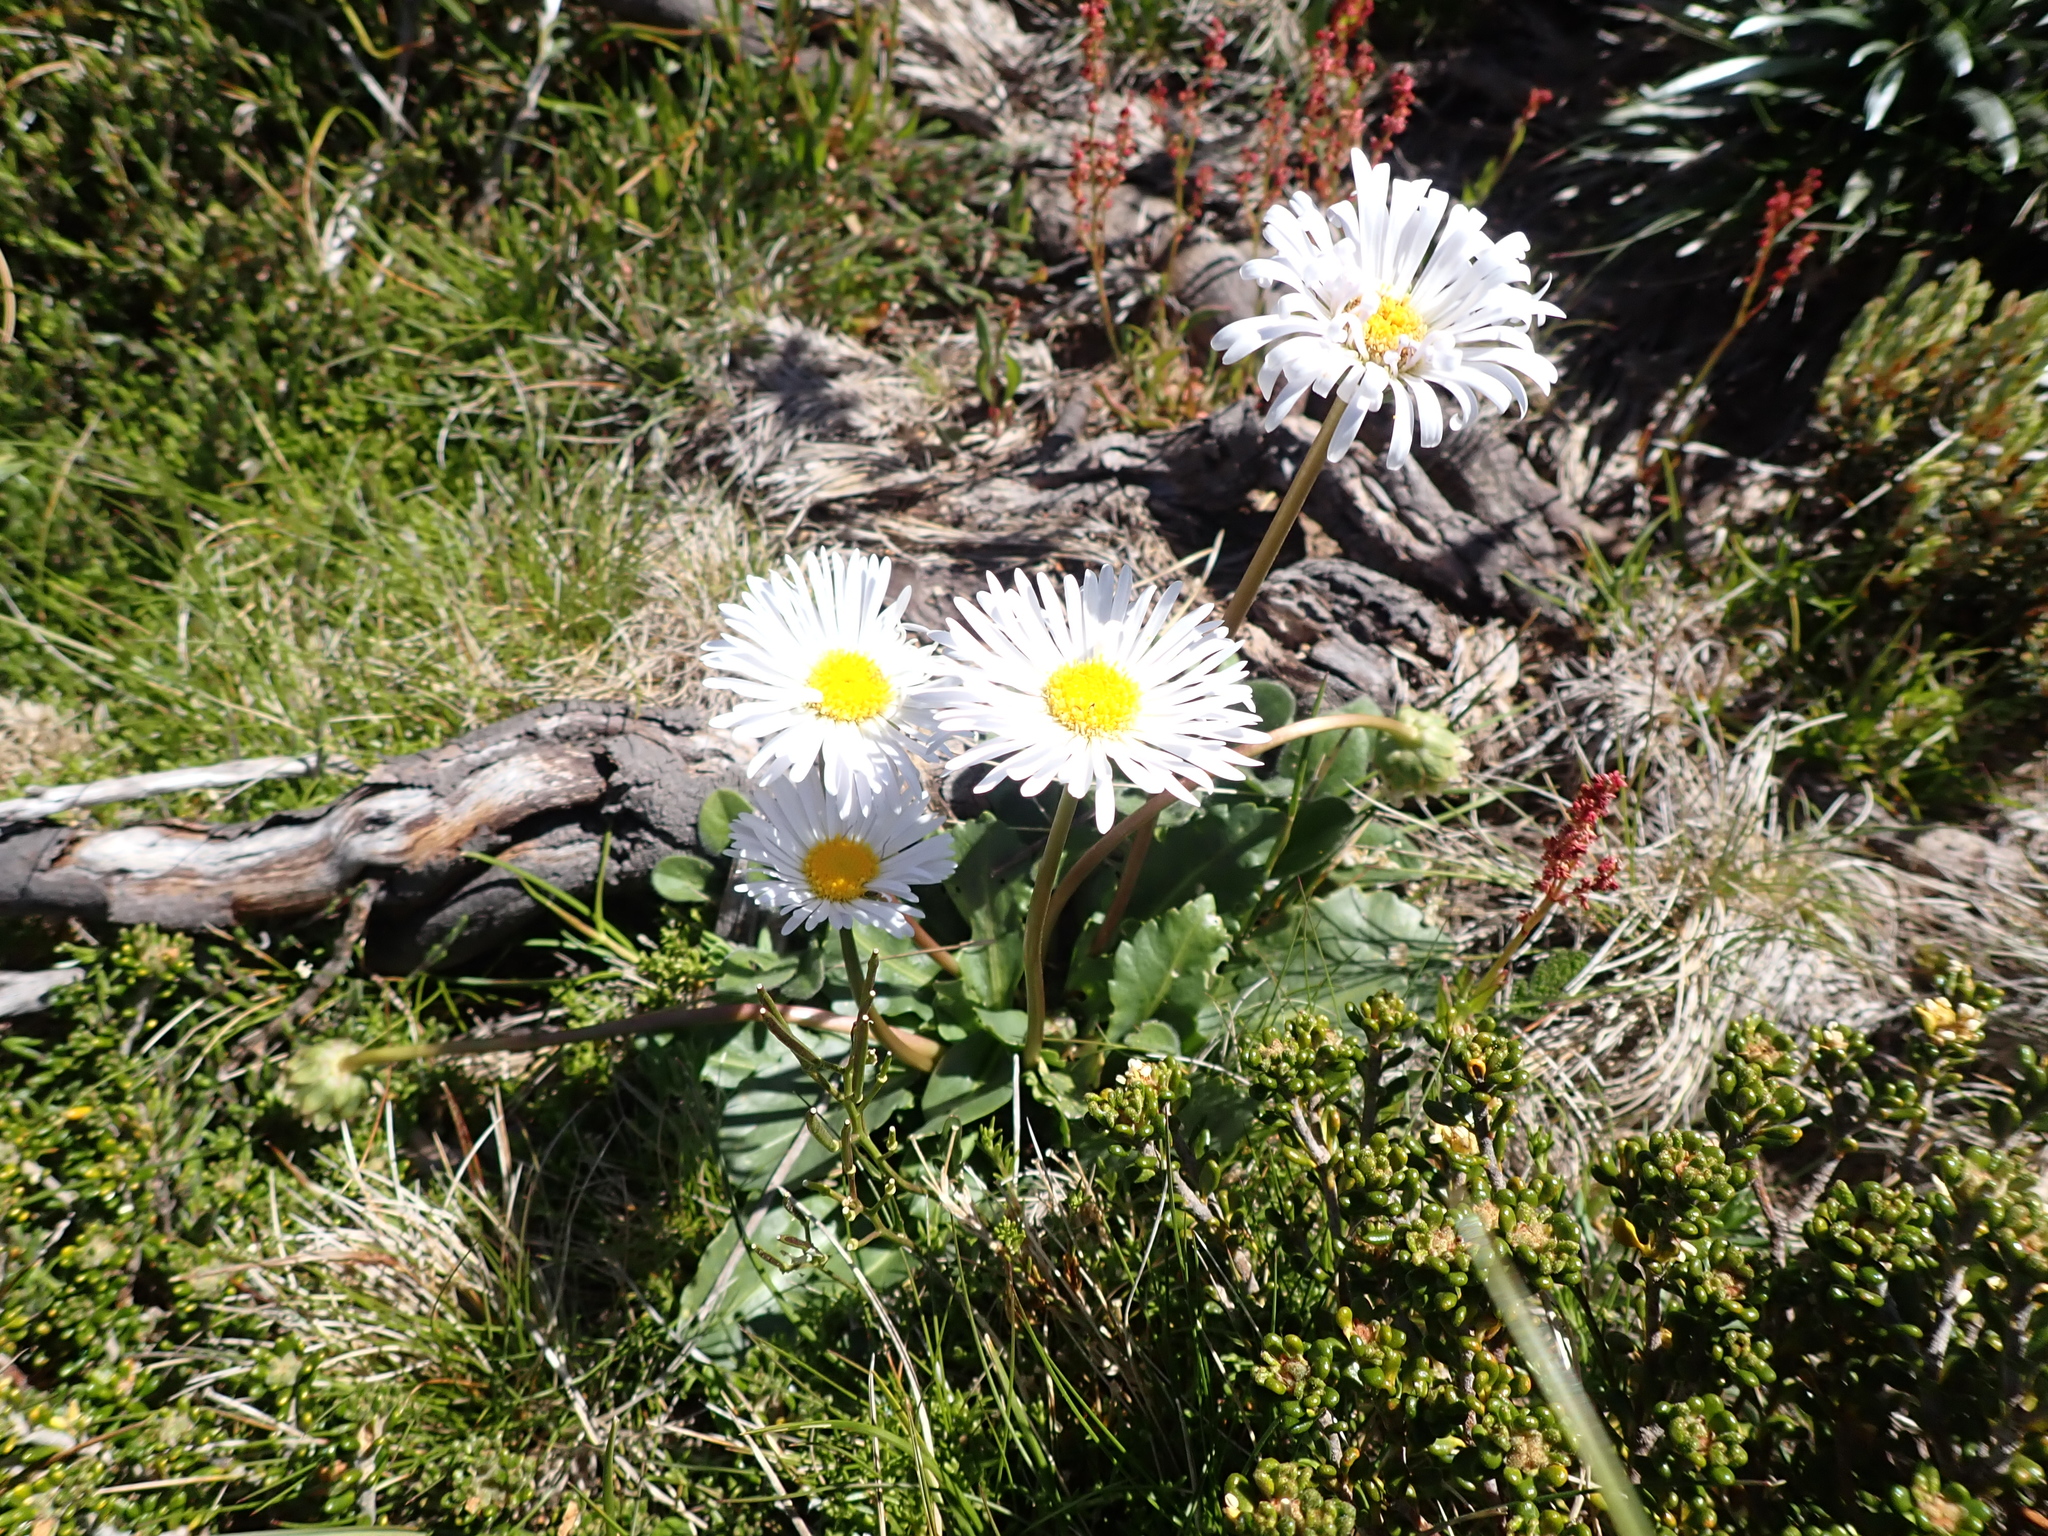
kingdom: Plantae
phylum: Tracheophyta
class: Magnoliopsida
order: Asterales
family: Asteraceae
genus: Brachyscome
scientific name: Brachyscome decipiens
